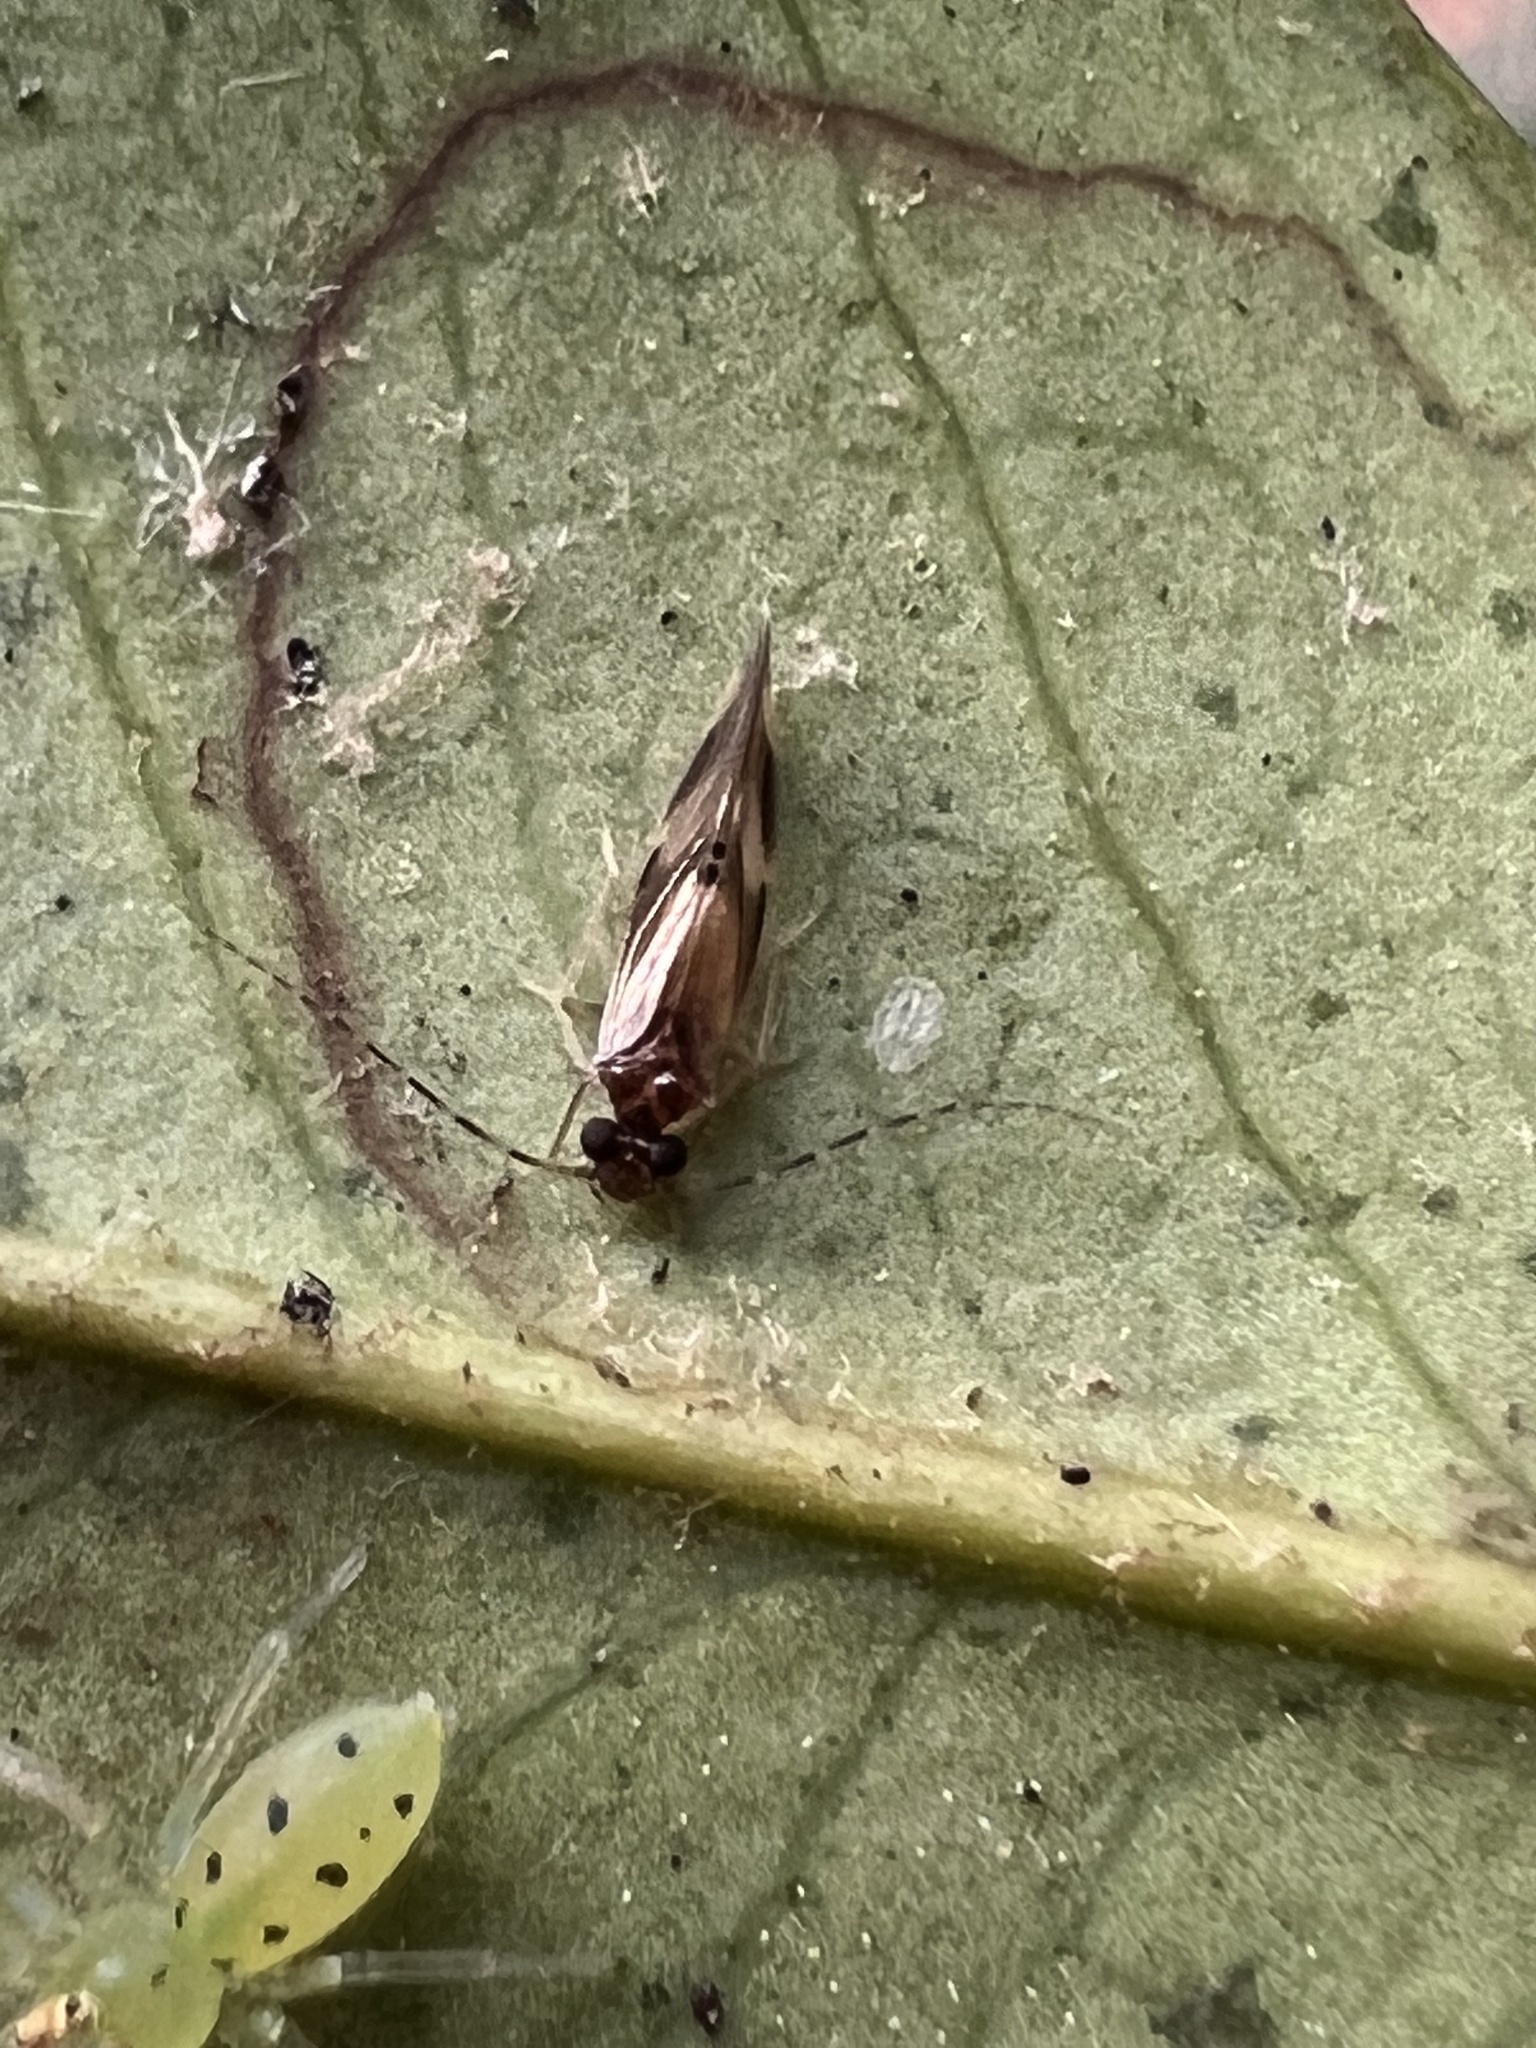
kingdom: Animalia
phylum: Arthropoda
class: Arachnida
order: Araneae
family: Salticidae
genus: Lyssomanes
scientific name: Lyssomanes viridis
